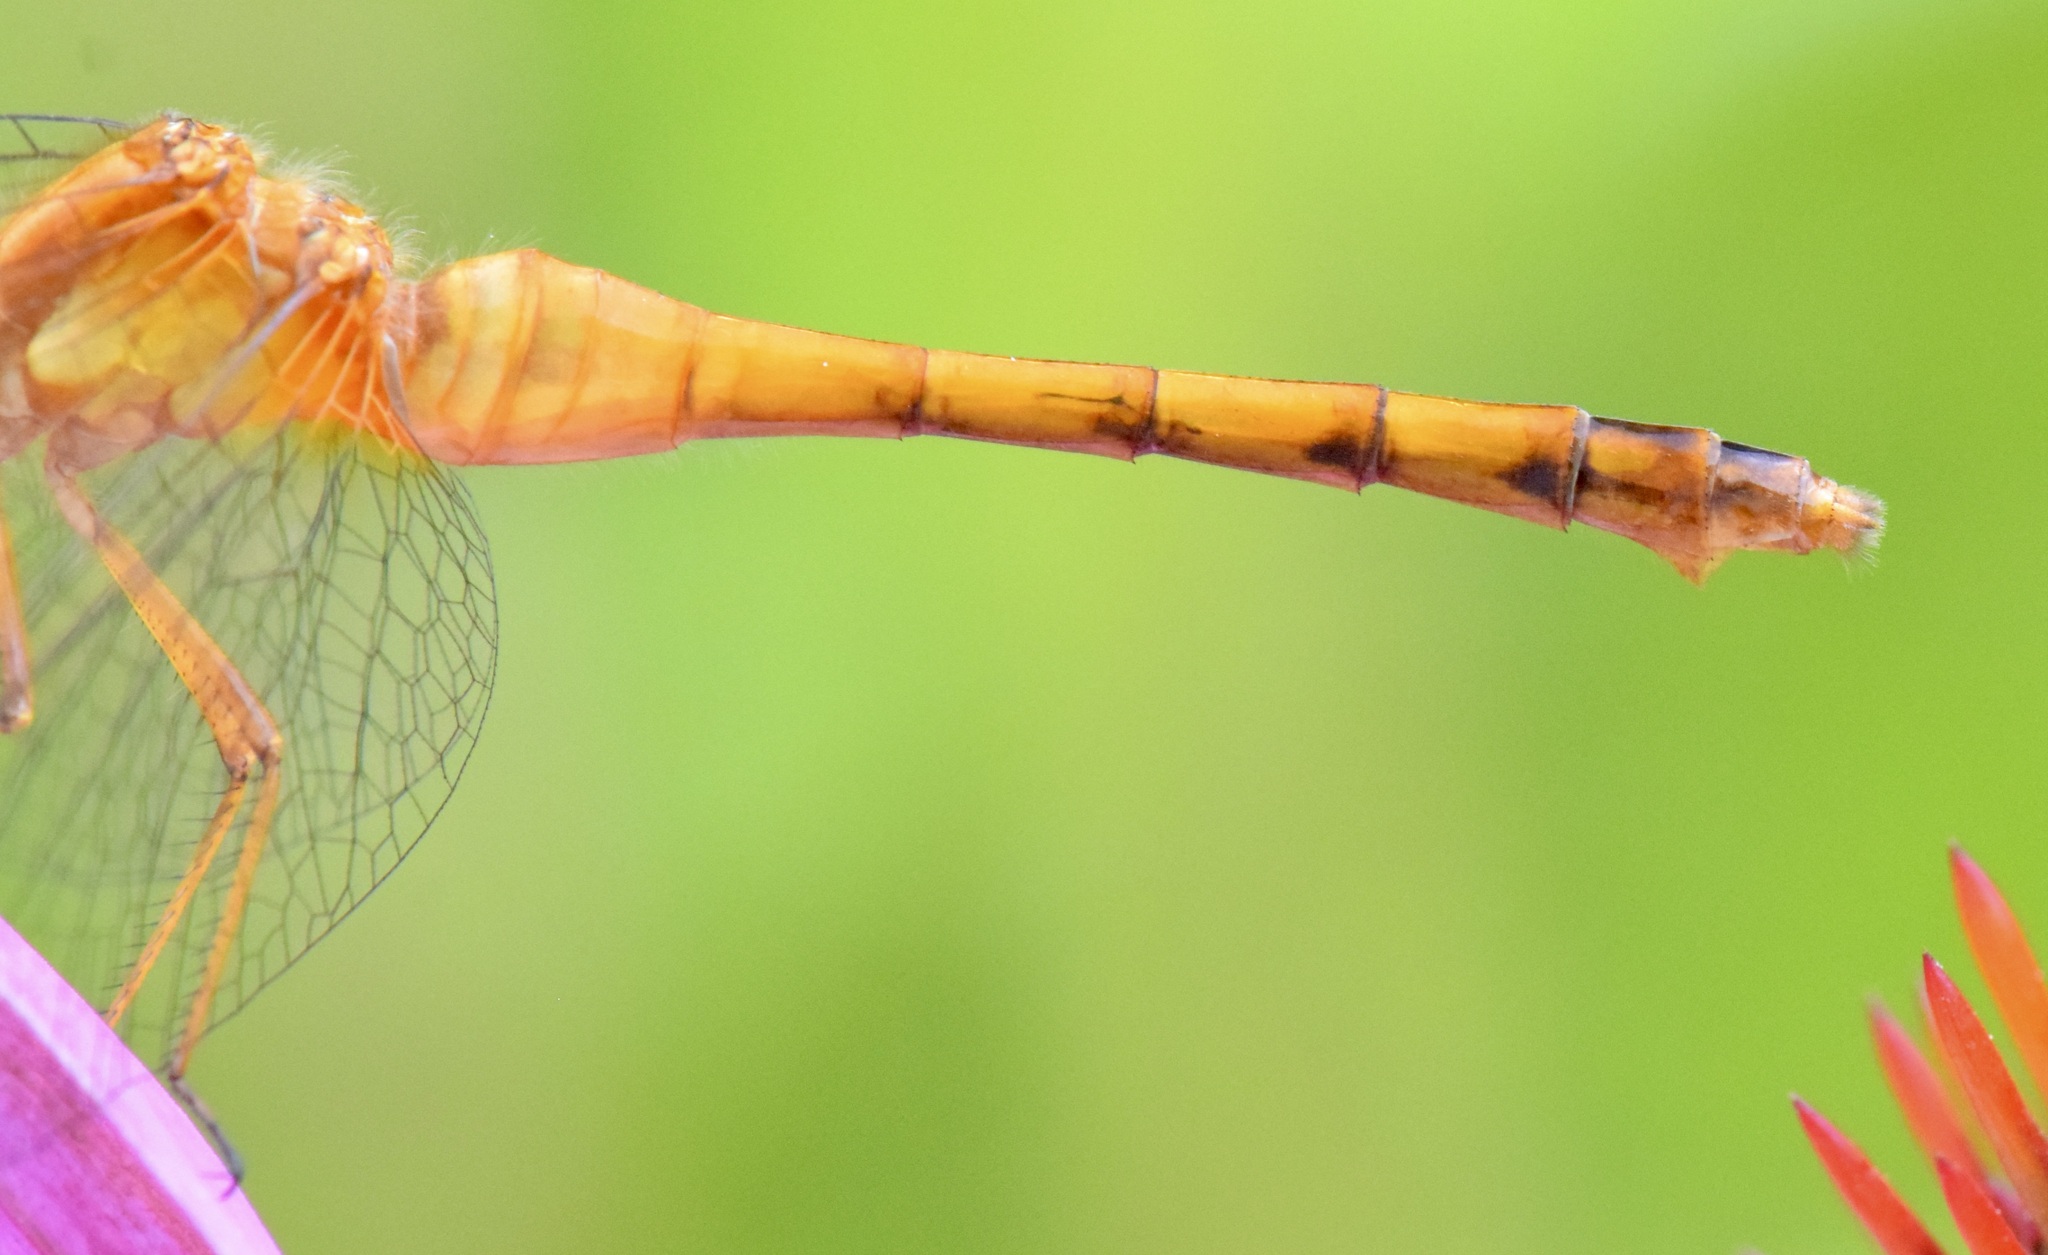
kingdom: Animalia
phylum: Arthropoda
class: Insecta
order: Odonata
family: Libellulidae
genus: Sympetrum
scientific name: Sympetrum vicinum
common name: Autumn meadowhawk
